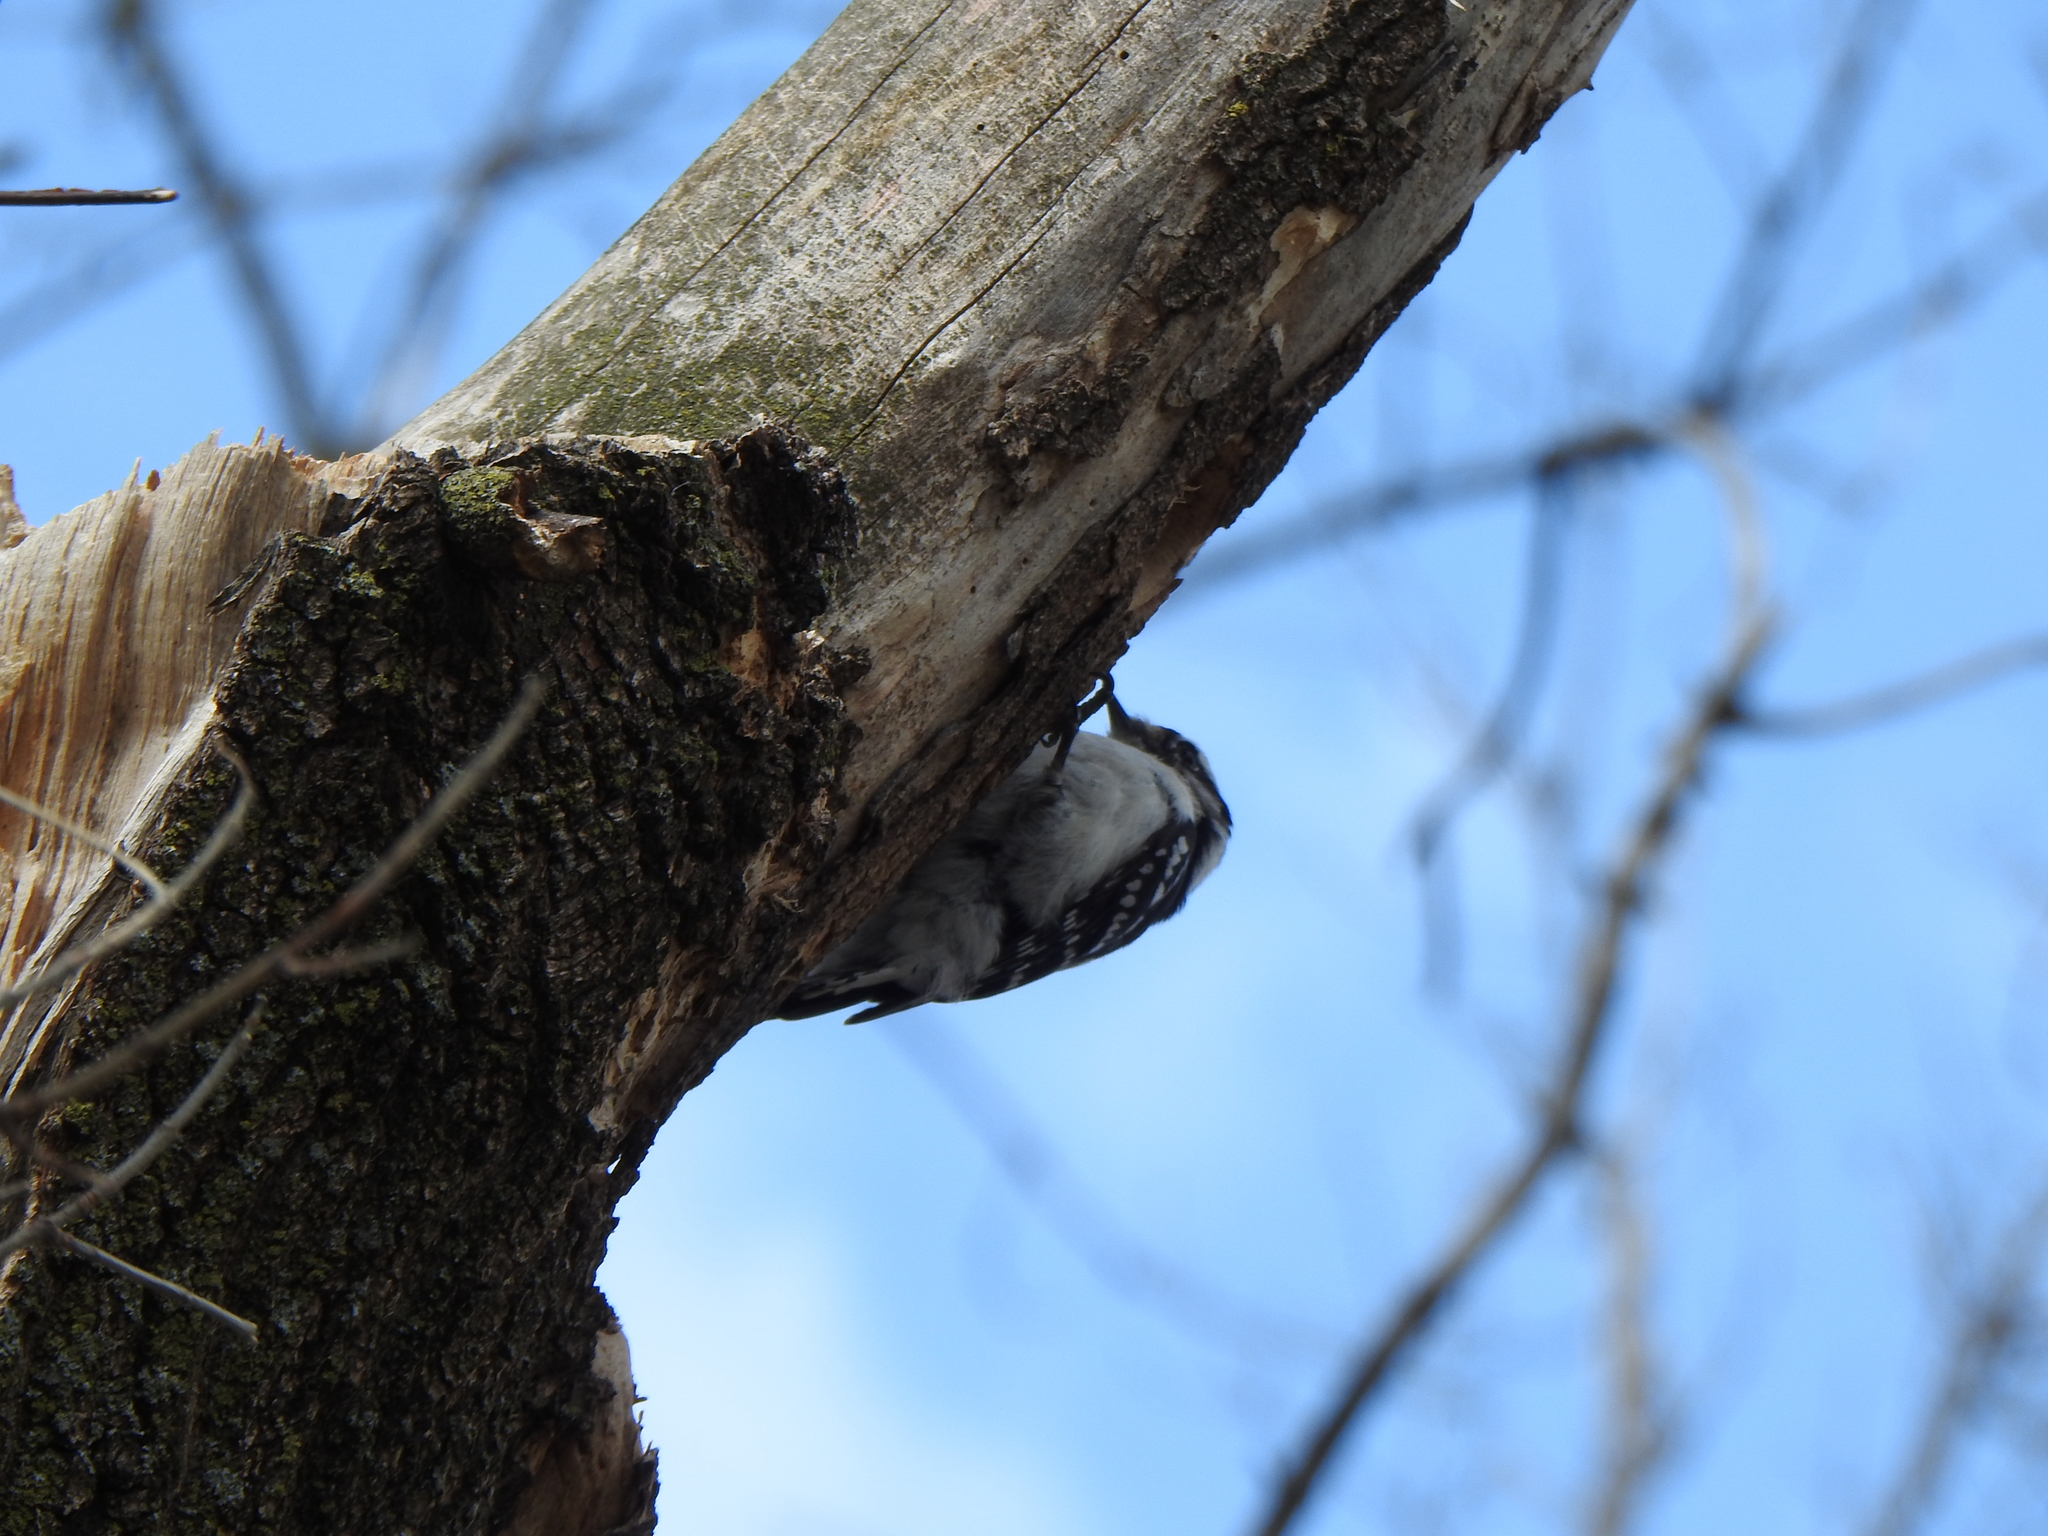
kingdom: Animalia
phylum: Chordata
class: Aves
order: Piciformes
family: Picidae
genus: Dryobates
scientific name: Dryobates pubescens
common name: Downy woodpecker
